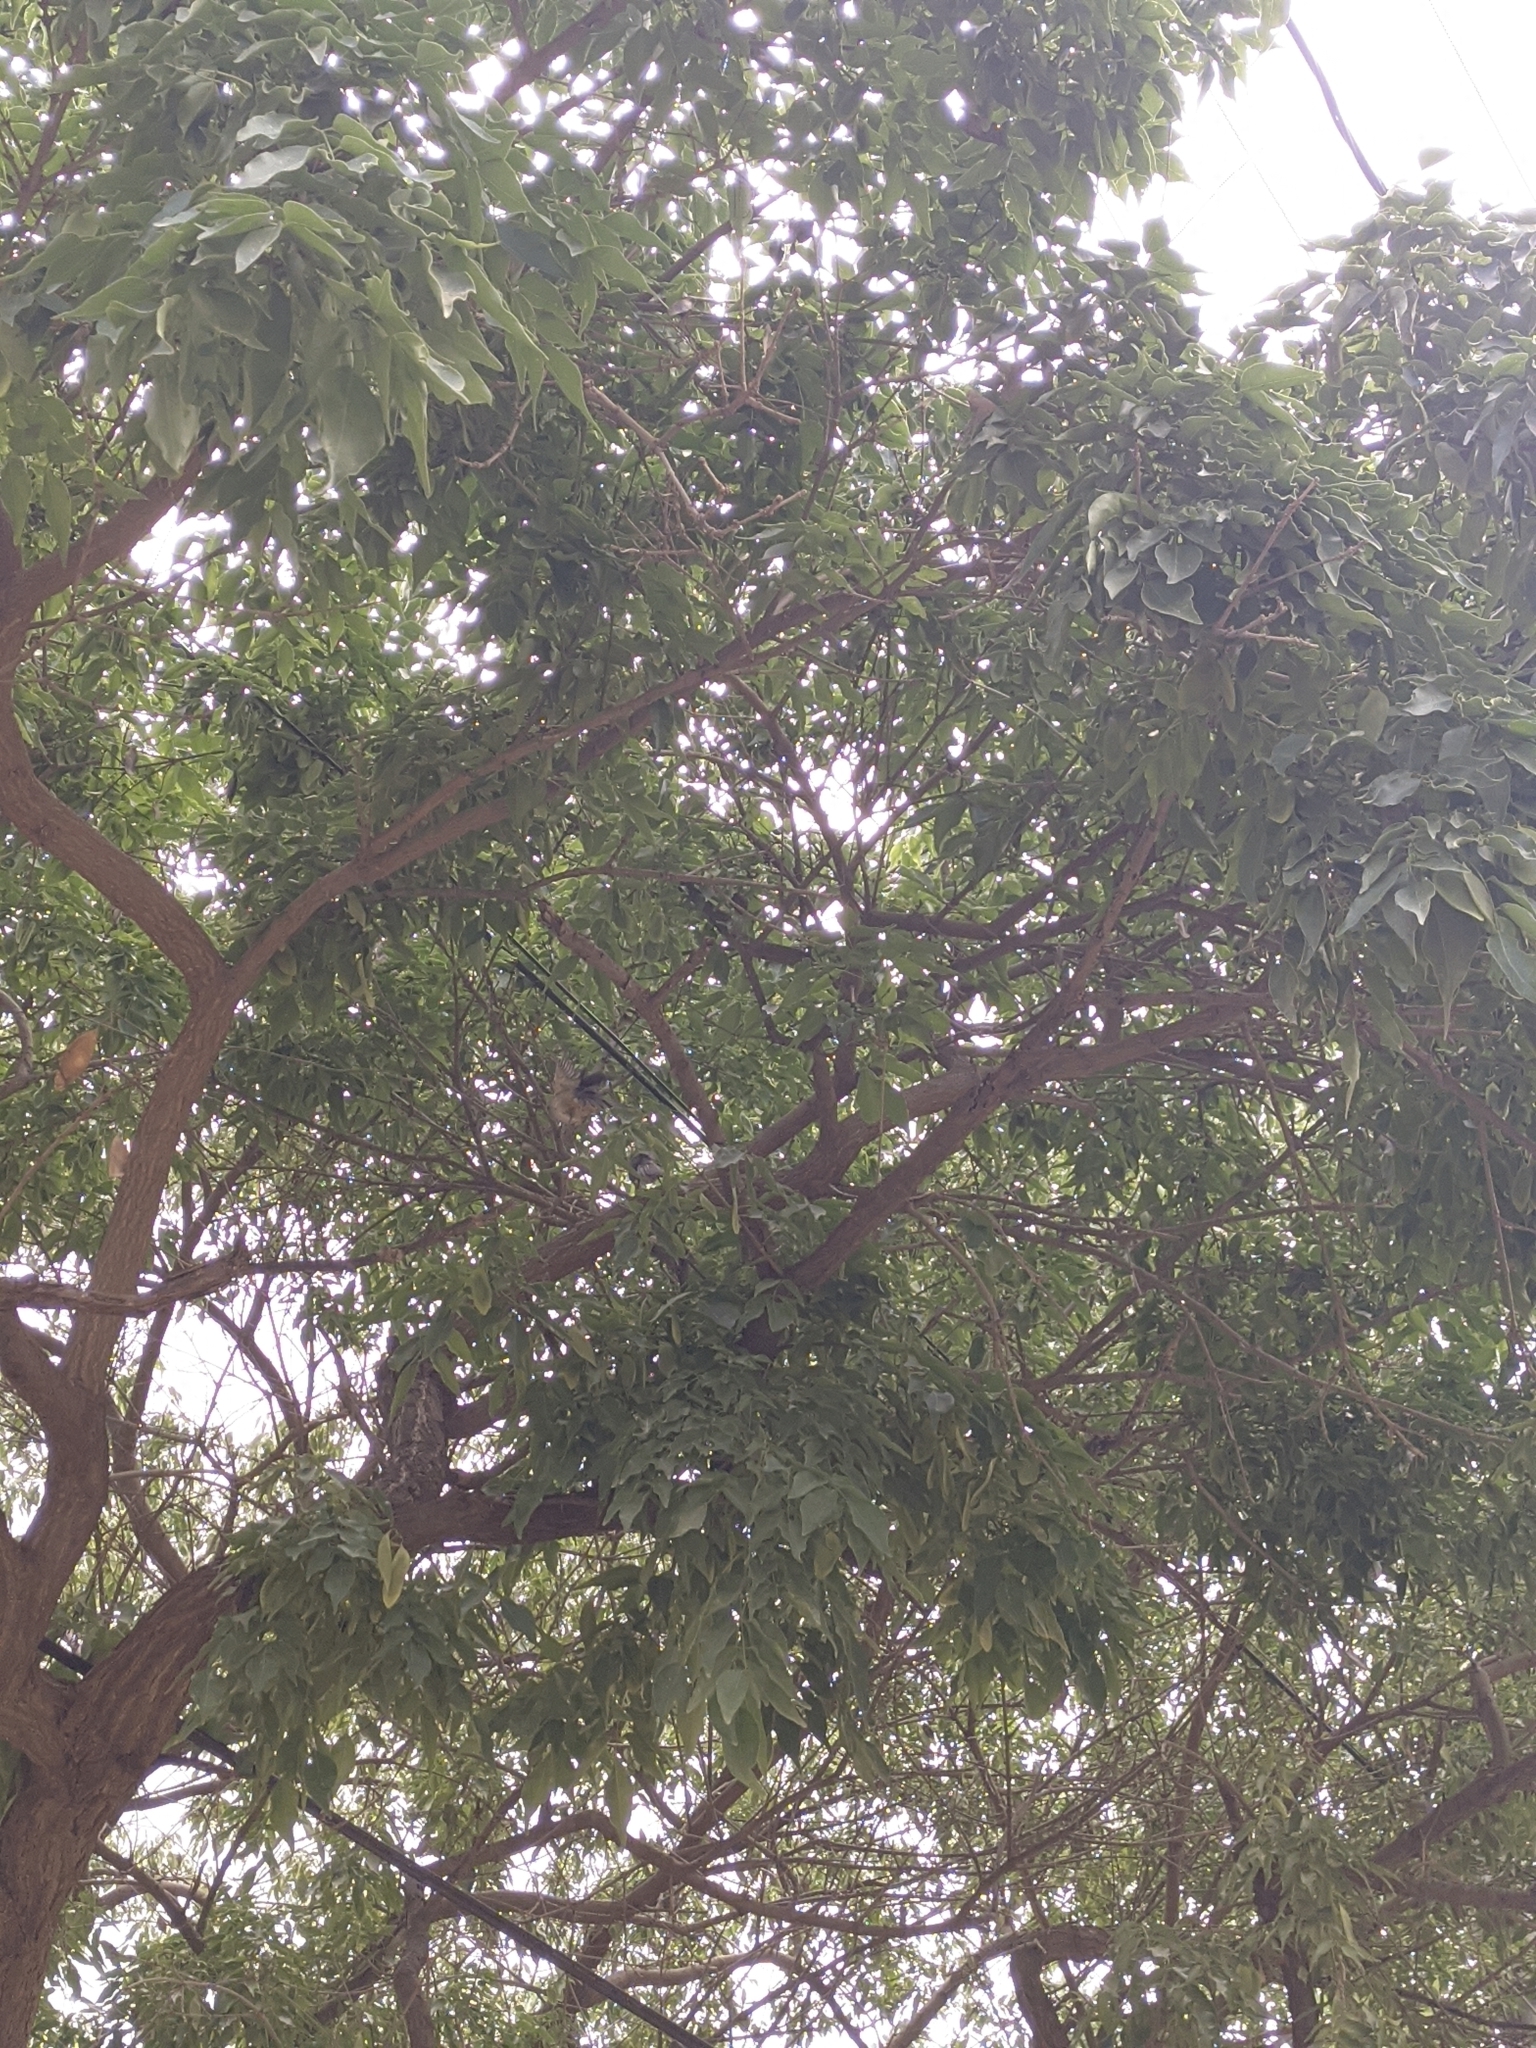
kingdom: Animalia
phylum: Chordata
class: Aves
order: Passeriformes
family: Thraupidae
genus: Saltator
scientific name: Saltator olivascens
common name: Caribbean grey saltator
